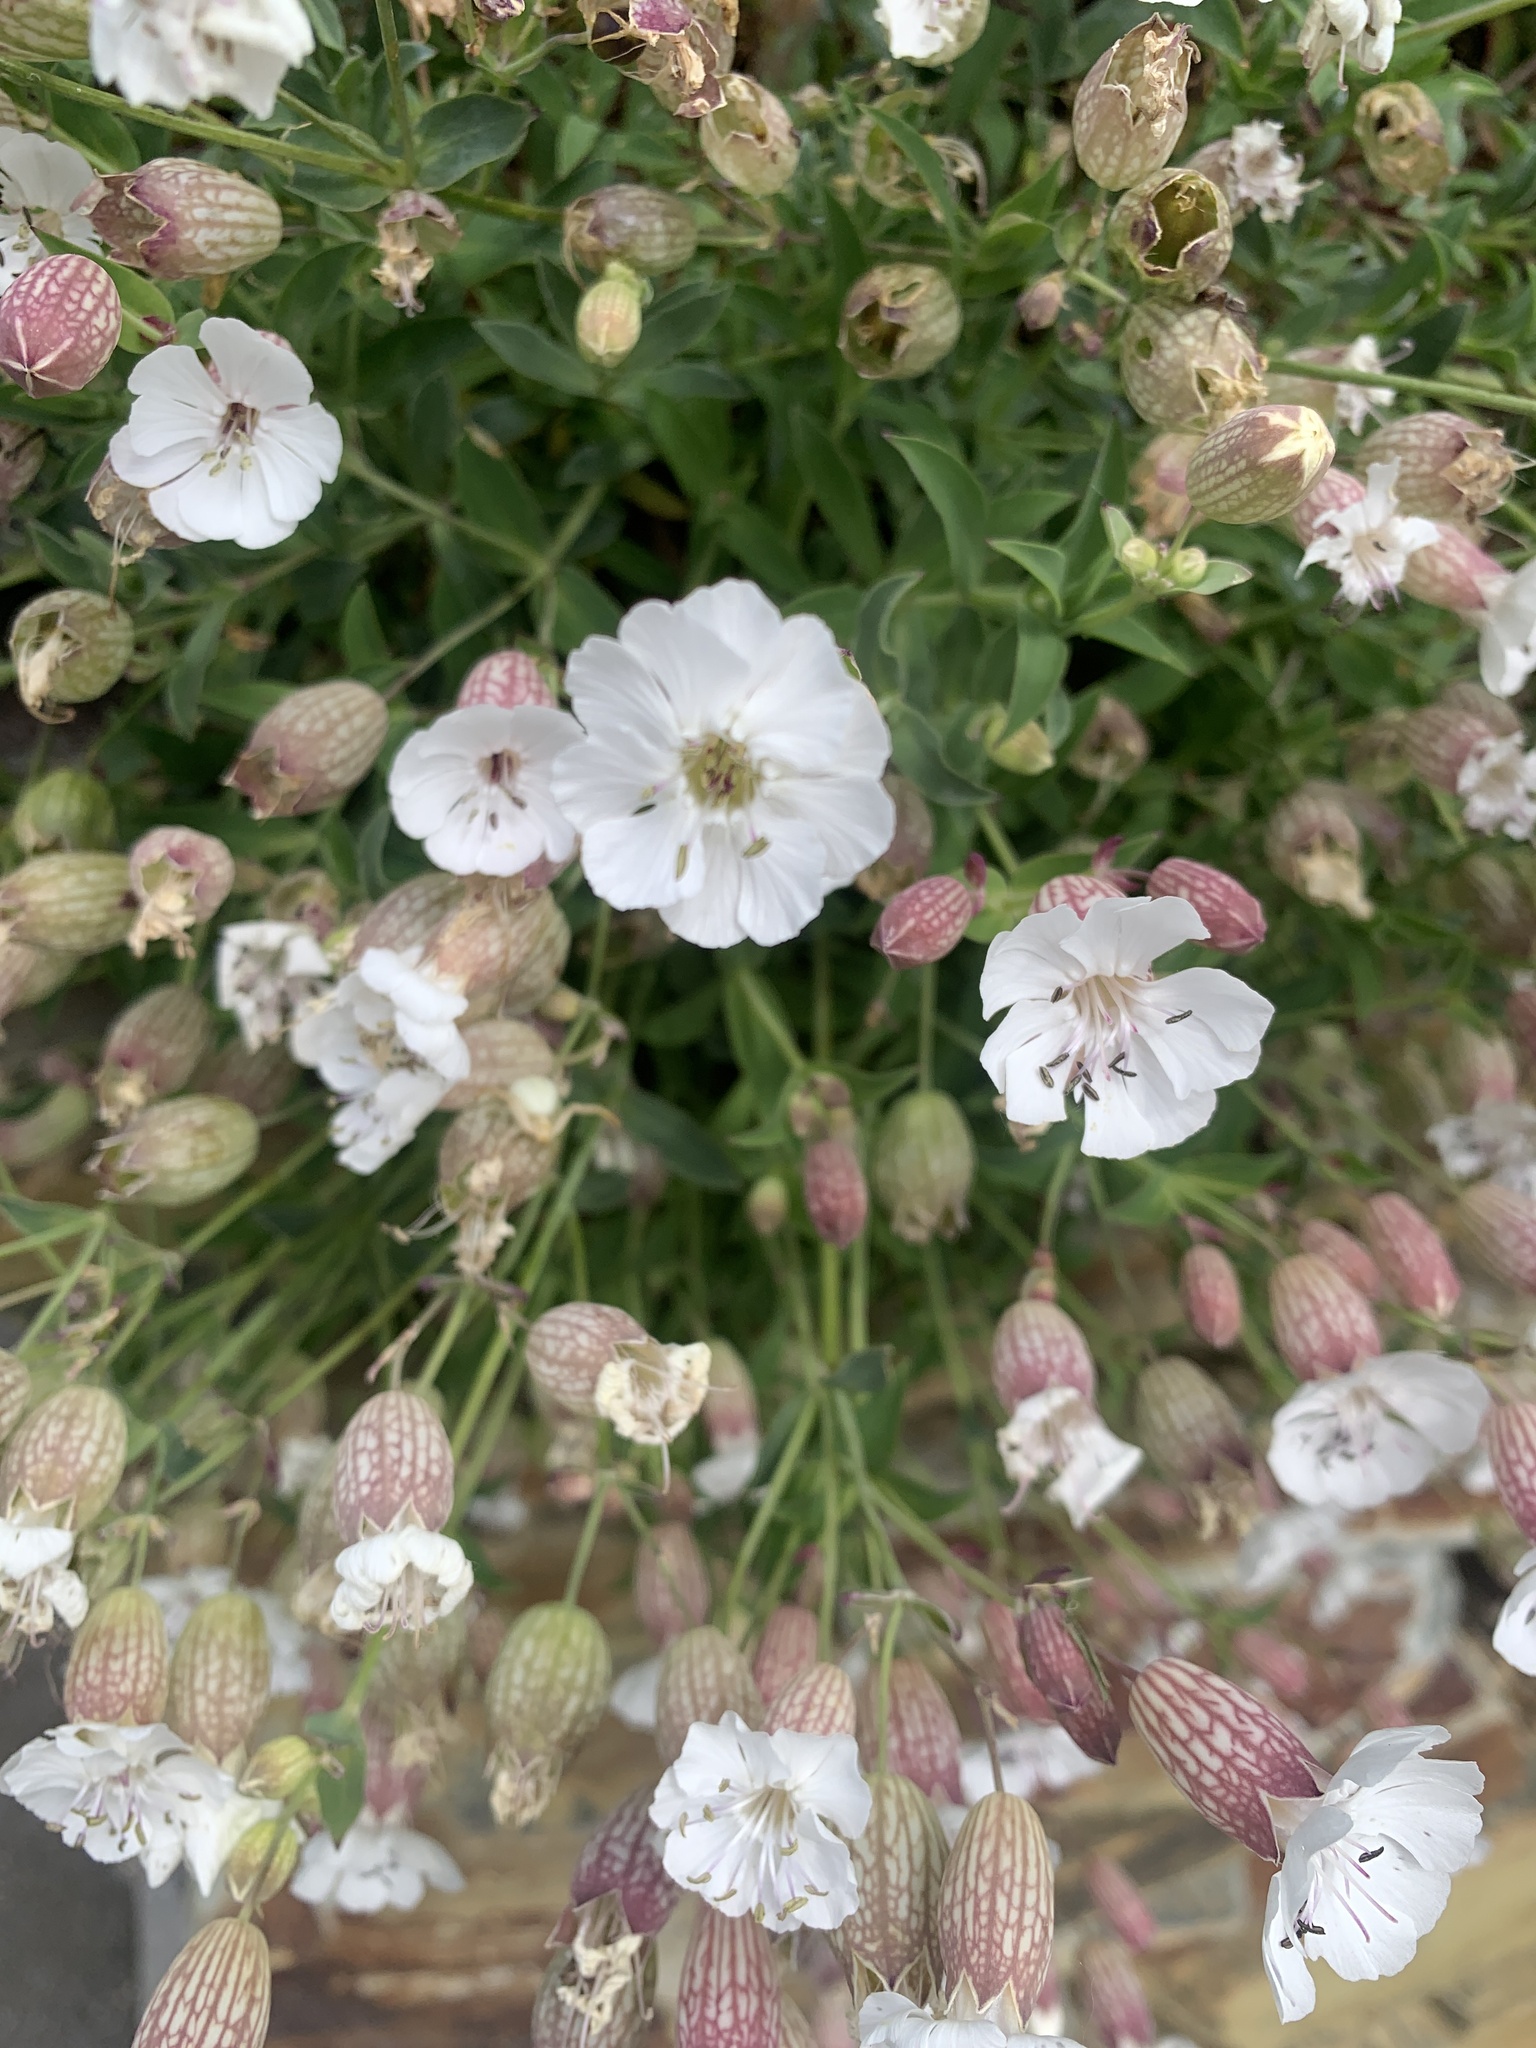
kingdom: Plantae
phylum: Tracheophyta
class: Magnoliopsida
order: Caryophyllales
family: Caryophyllaceae
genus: Silene
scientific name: Silene uniflora
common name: Sea campion
